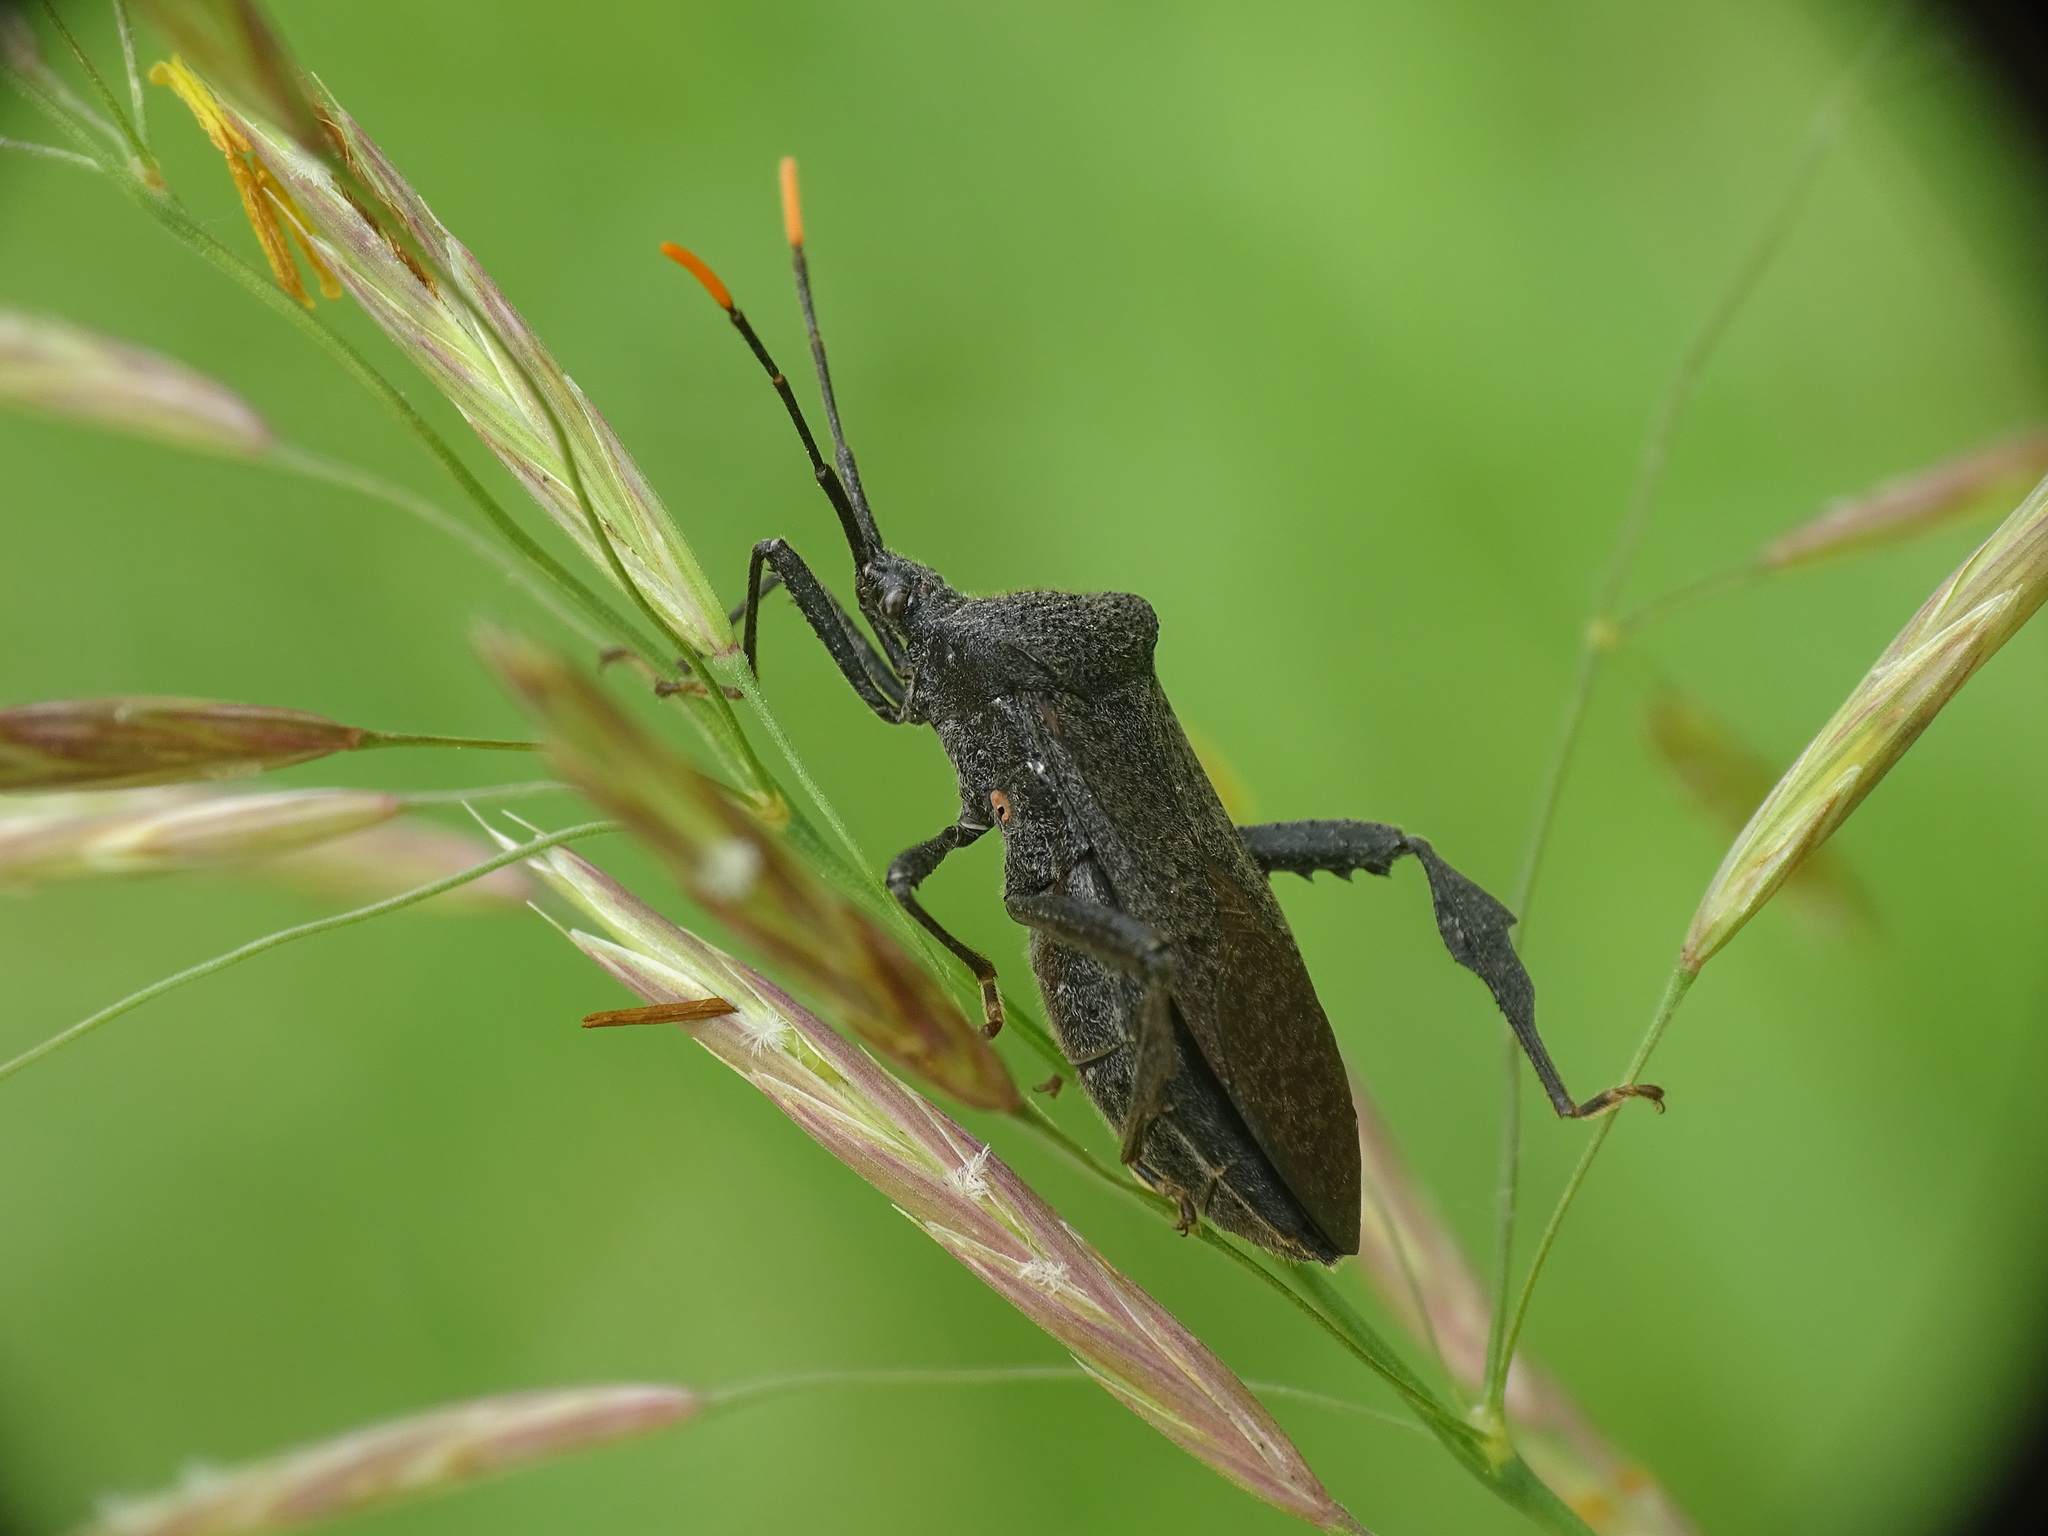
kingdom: Animalia
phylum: Arthropoda
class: Insecta
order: Hemiptera
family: Coreidae
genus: Acanthocephala
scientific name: Acanthocephala terminalis
